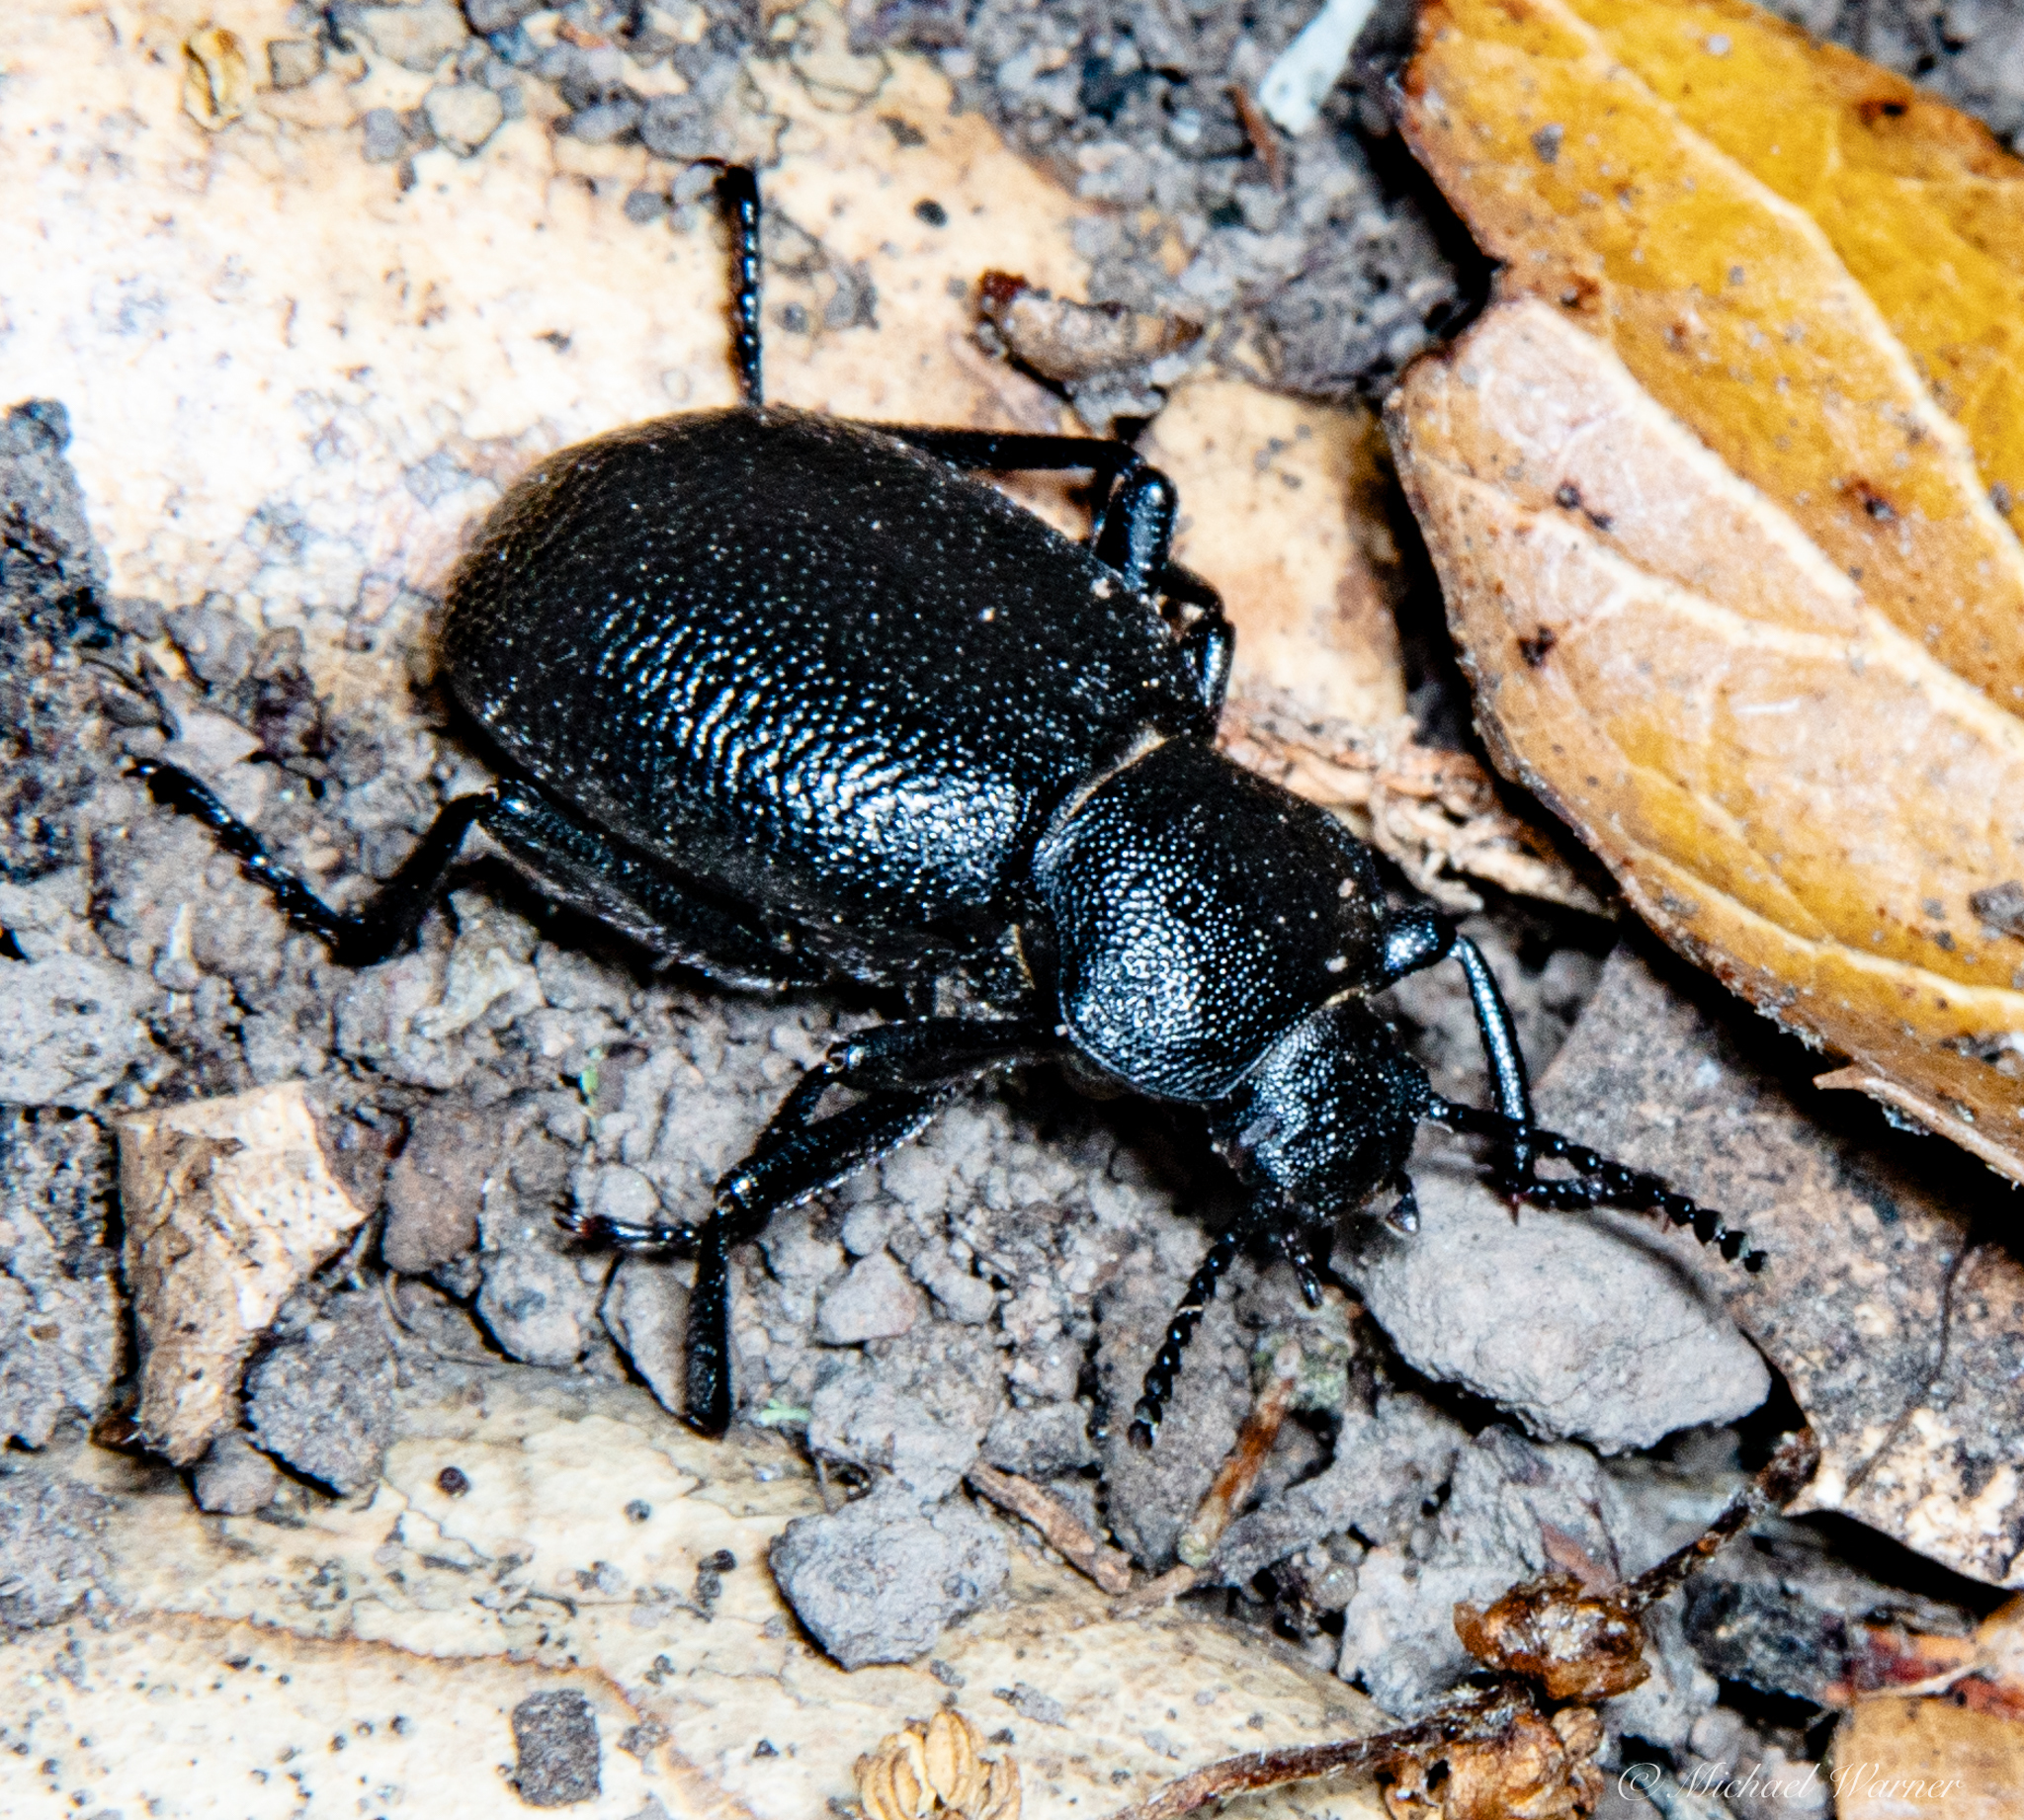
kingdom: Animalia
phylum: Arthropoda
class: Insecta
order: Coleoptera
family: Tenebrionidae
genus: Eleodes
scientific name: Eleodes cordata
